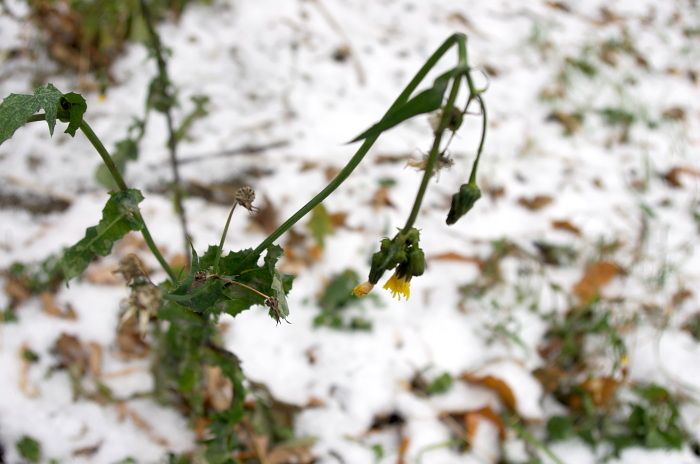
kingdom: Plantae
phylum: Tracheophyta
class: Magnoliopsida
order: Asterales
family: Asteraceae
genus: Sonchus
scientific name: Sonchus oleraceus
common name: Common sowthistle
